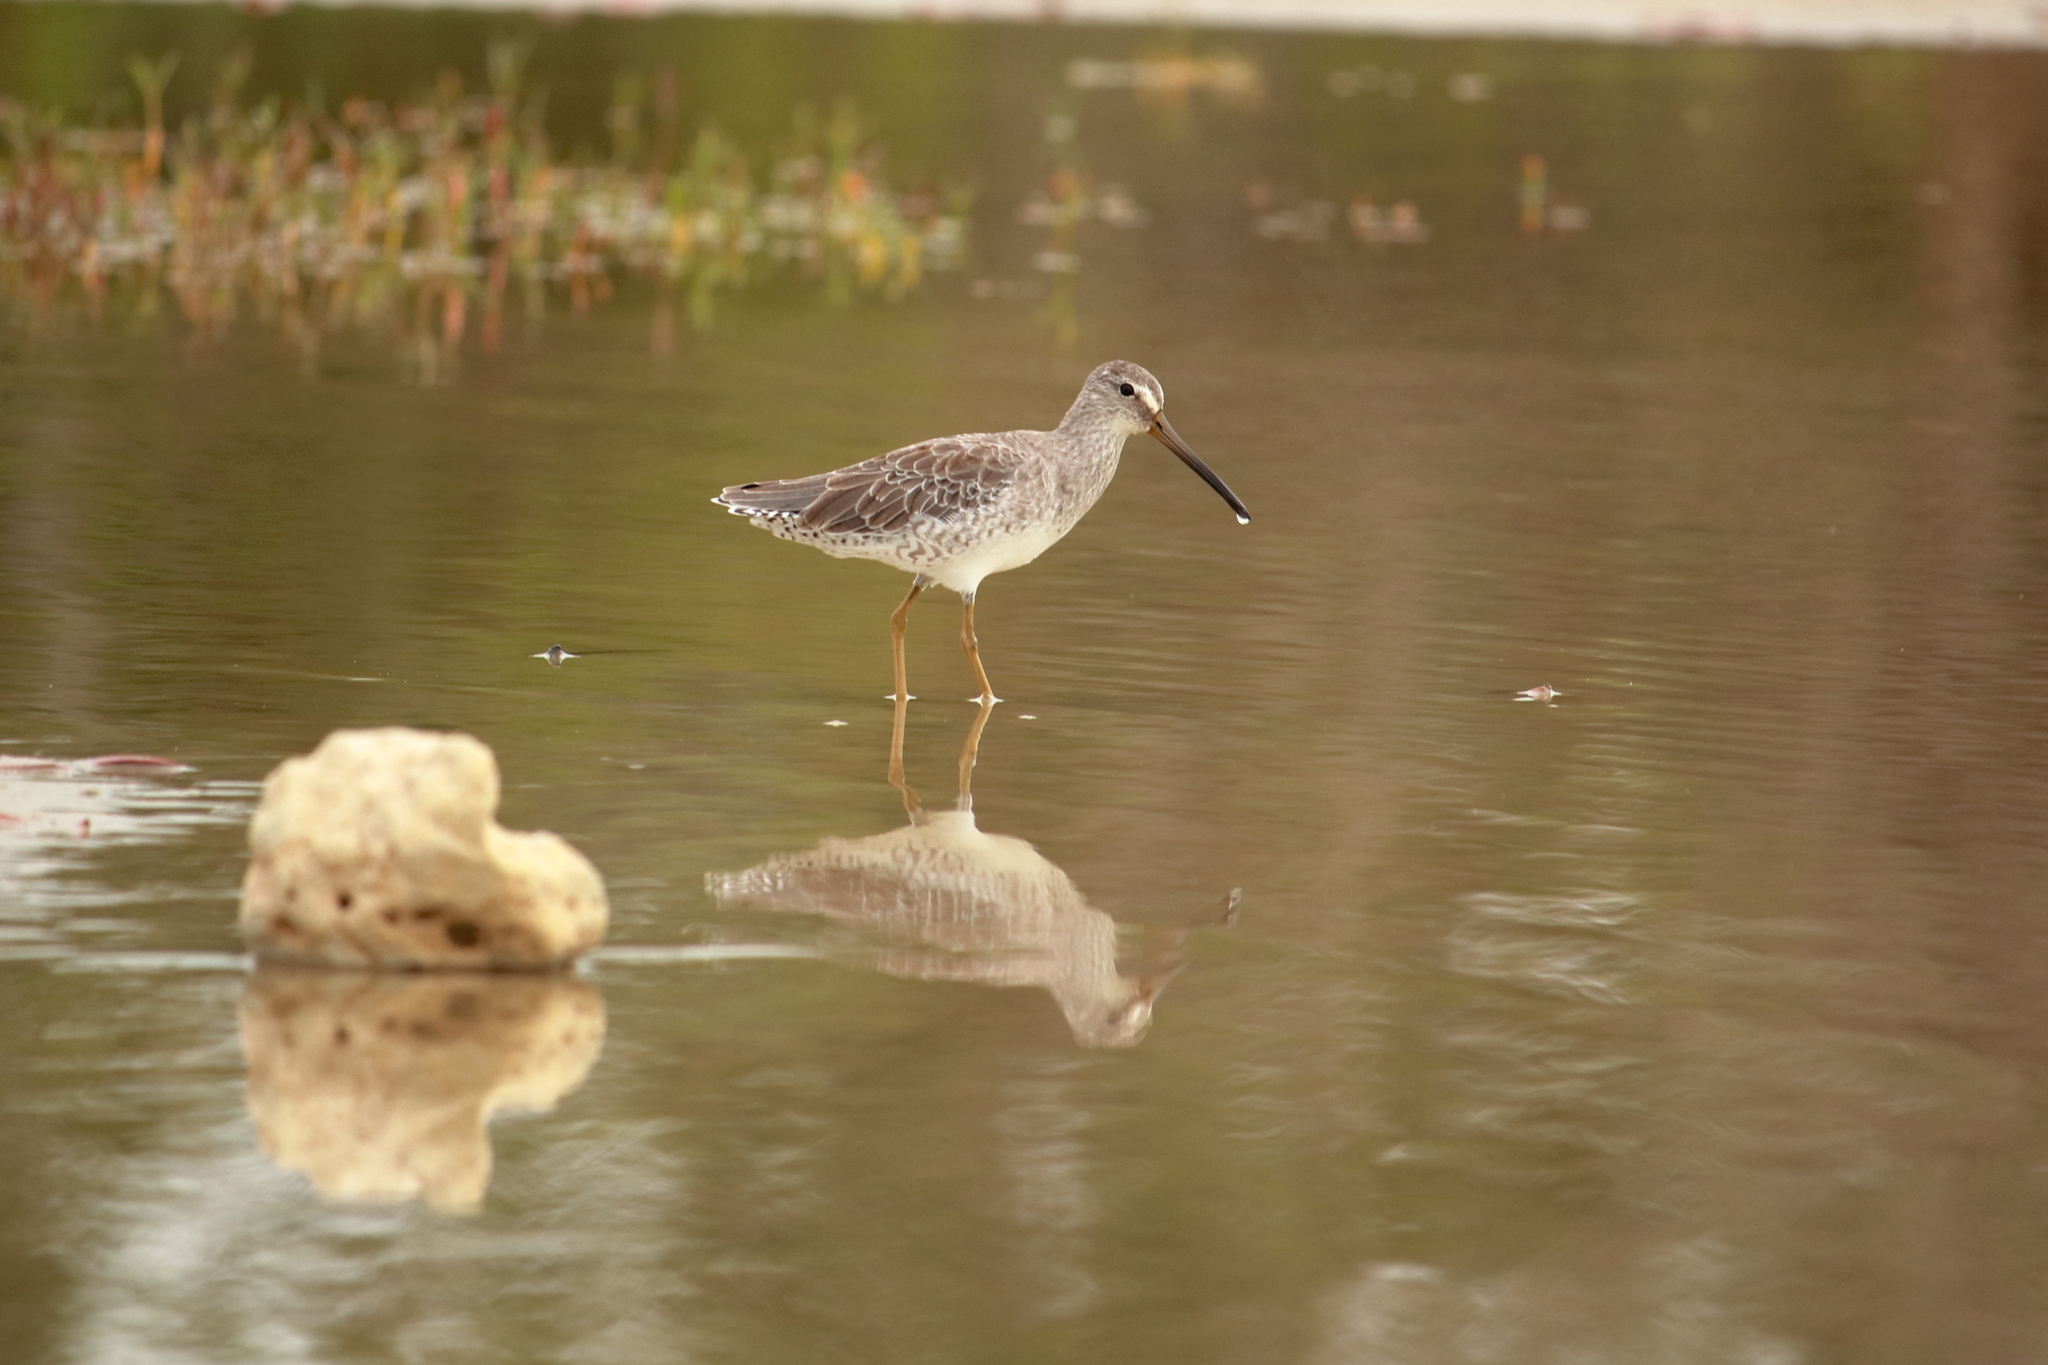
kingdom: Animalia
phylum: Chordata
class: Aves
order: Charadriiformes
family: Scolopacidae
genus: Limnodromus
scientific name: Limnodromus griseus
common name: Short-billed dowitcher
